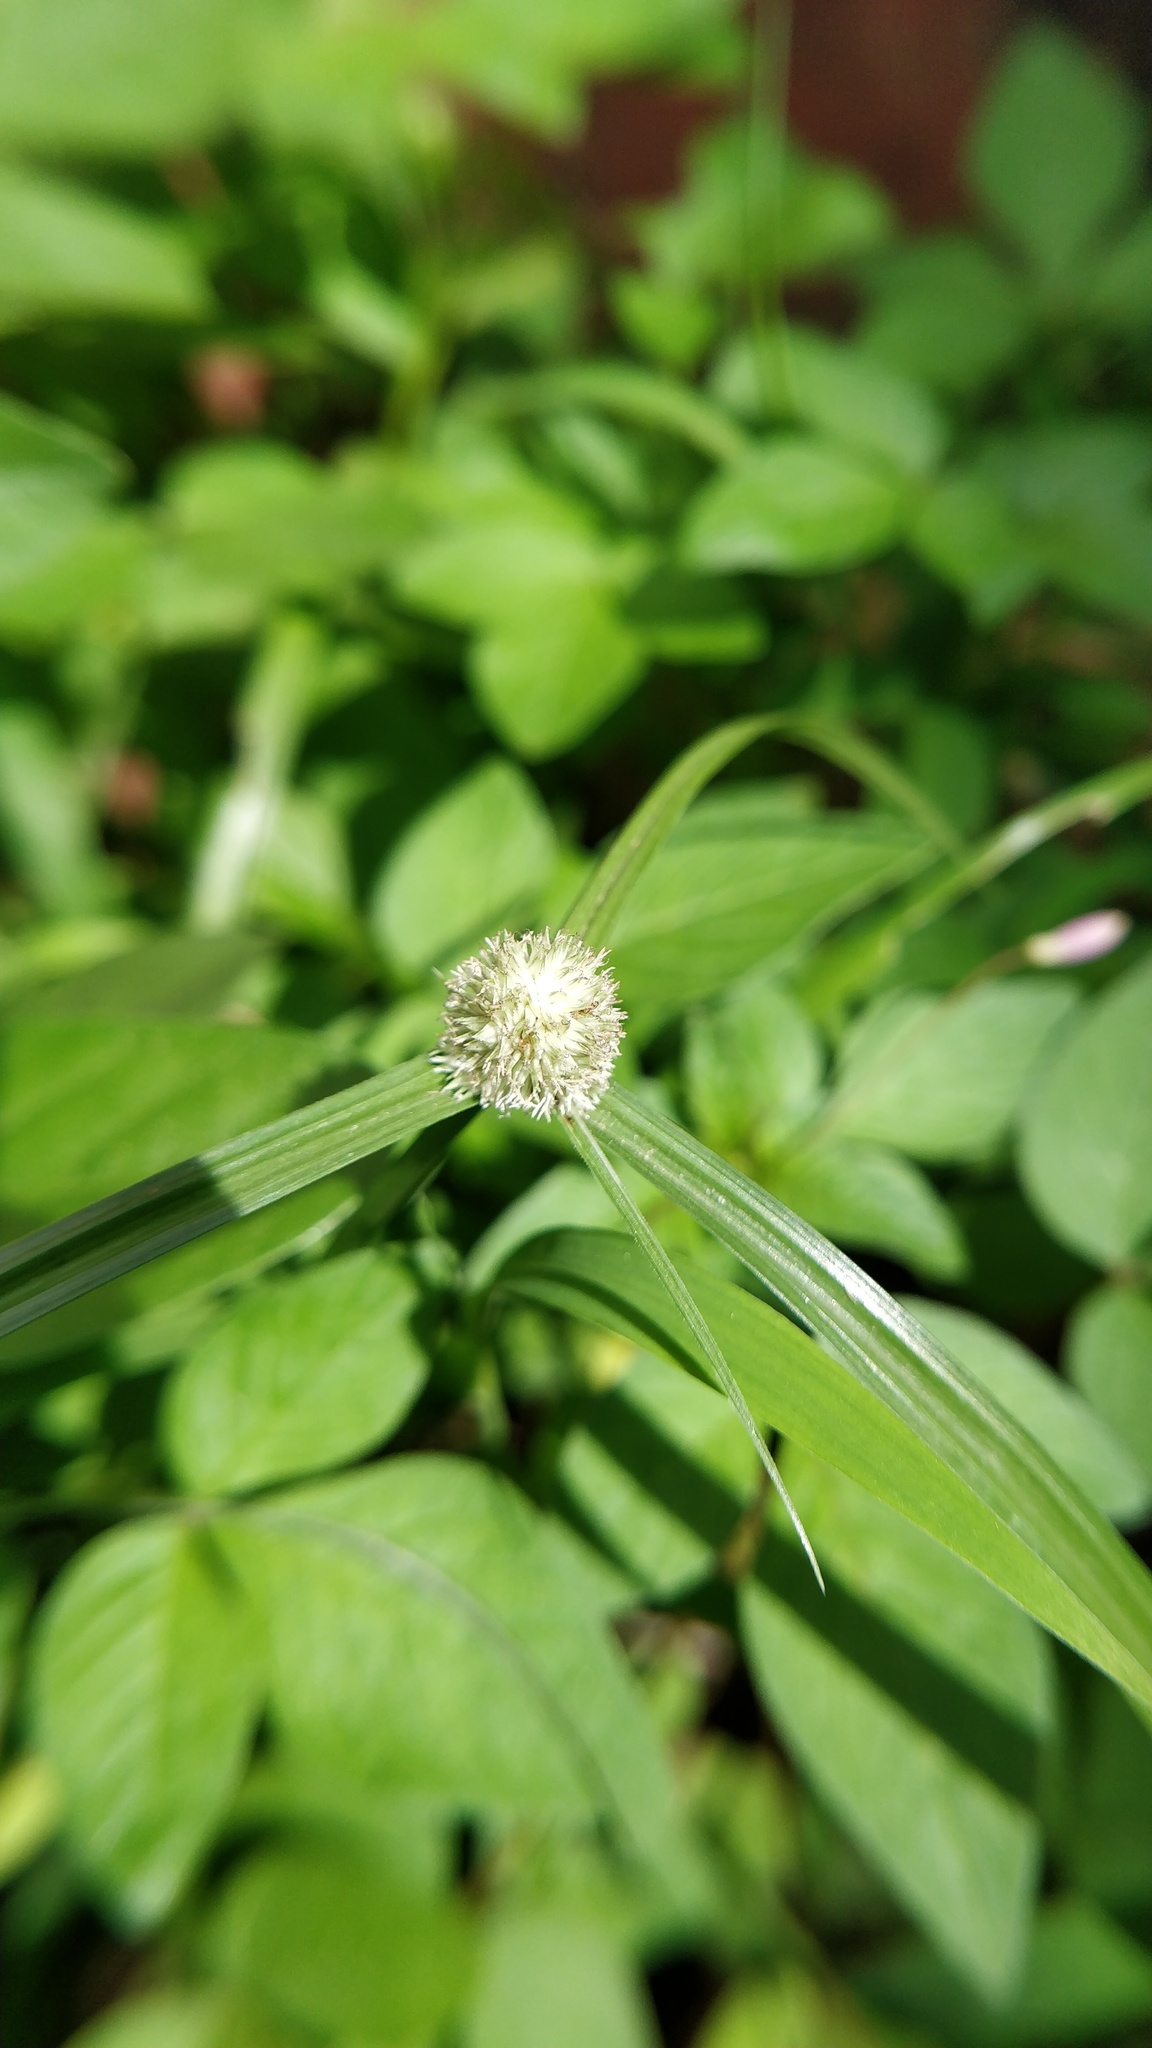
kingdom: Plantae
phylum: Tracheophyta
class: Liliopsida
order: Poales
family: Cyperaceae
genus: Cyperus
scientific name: Cyperus mindorensis
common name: Flatsedge
